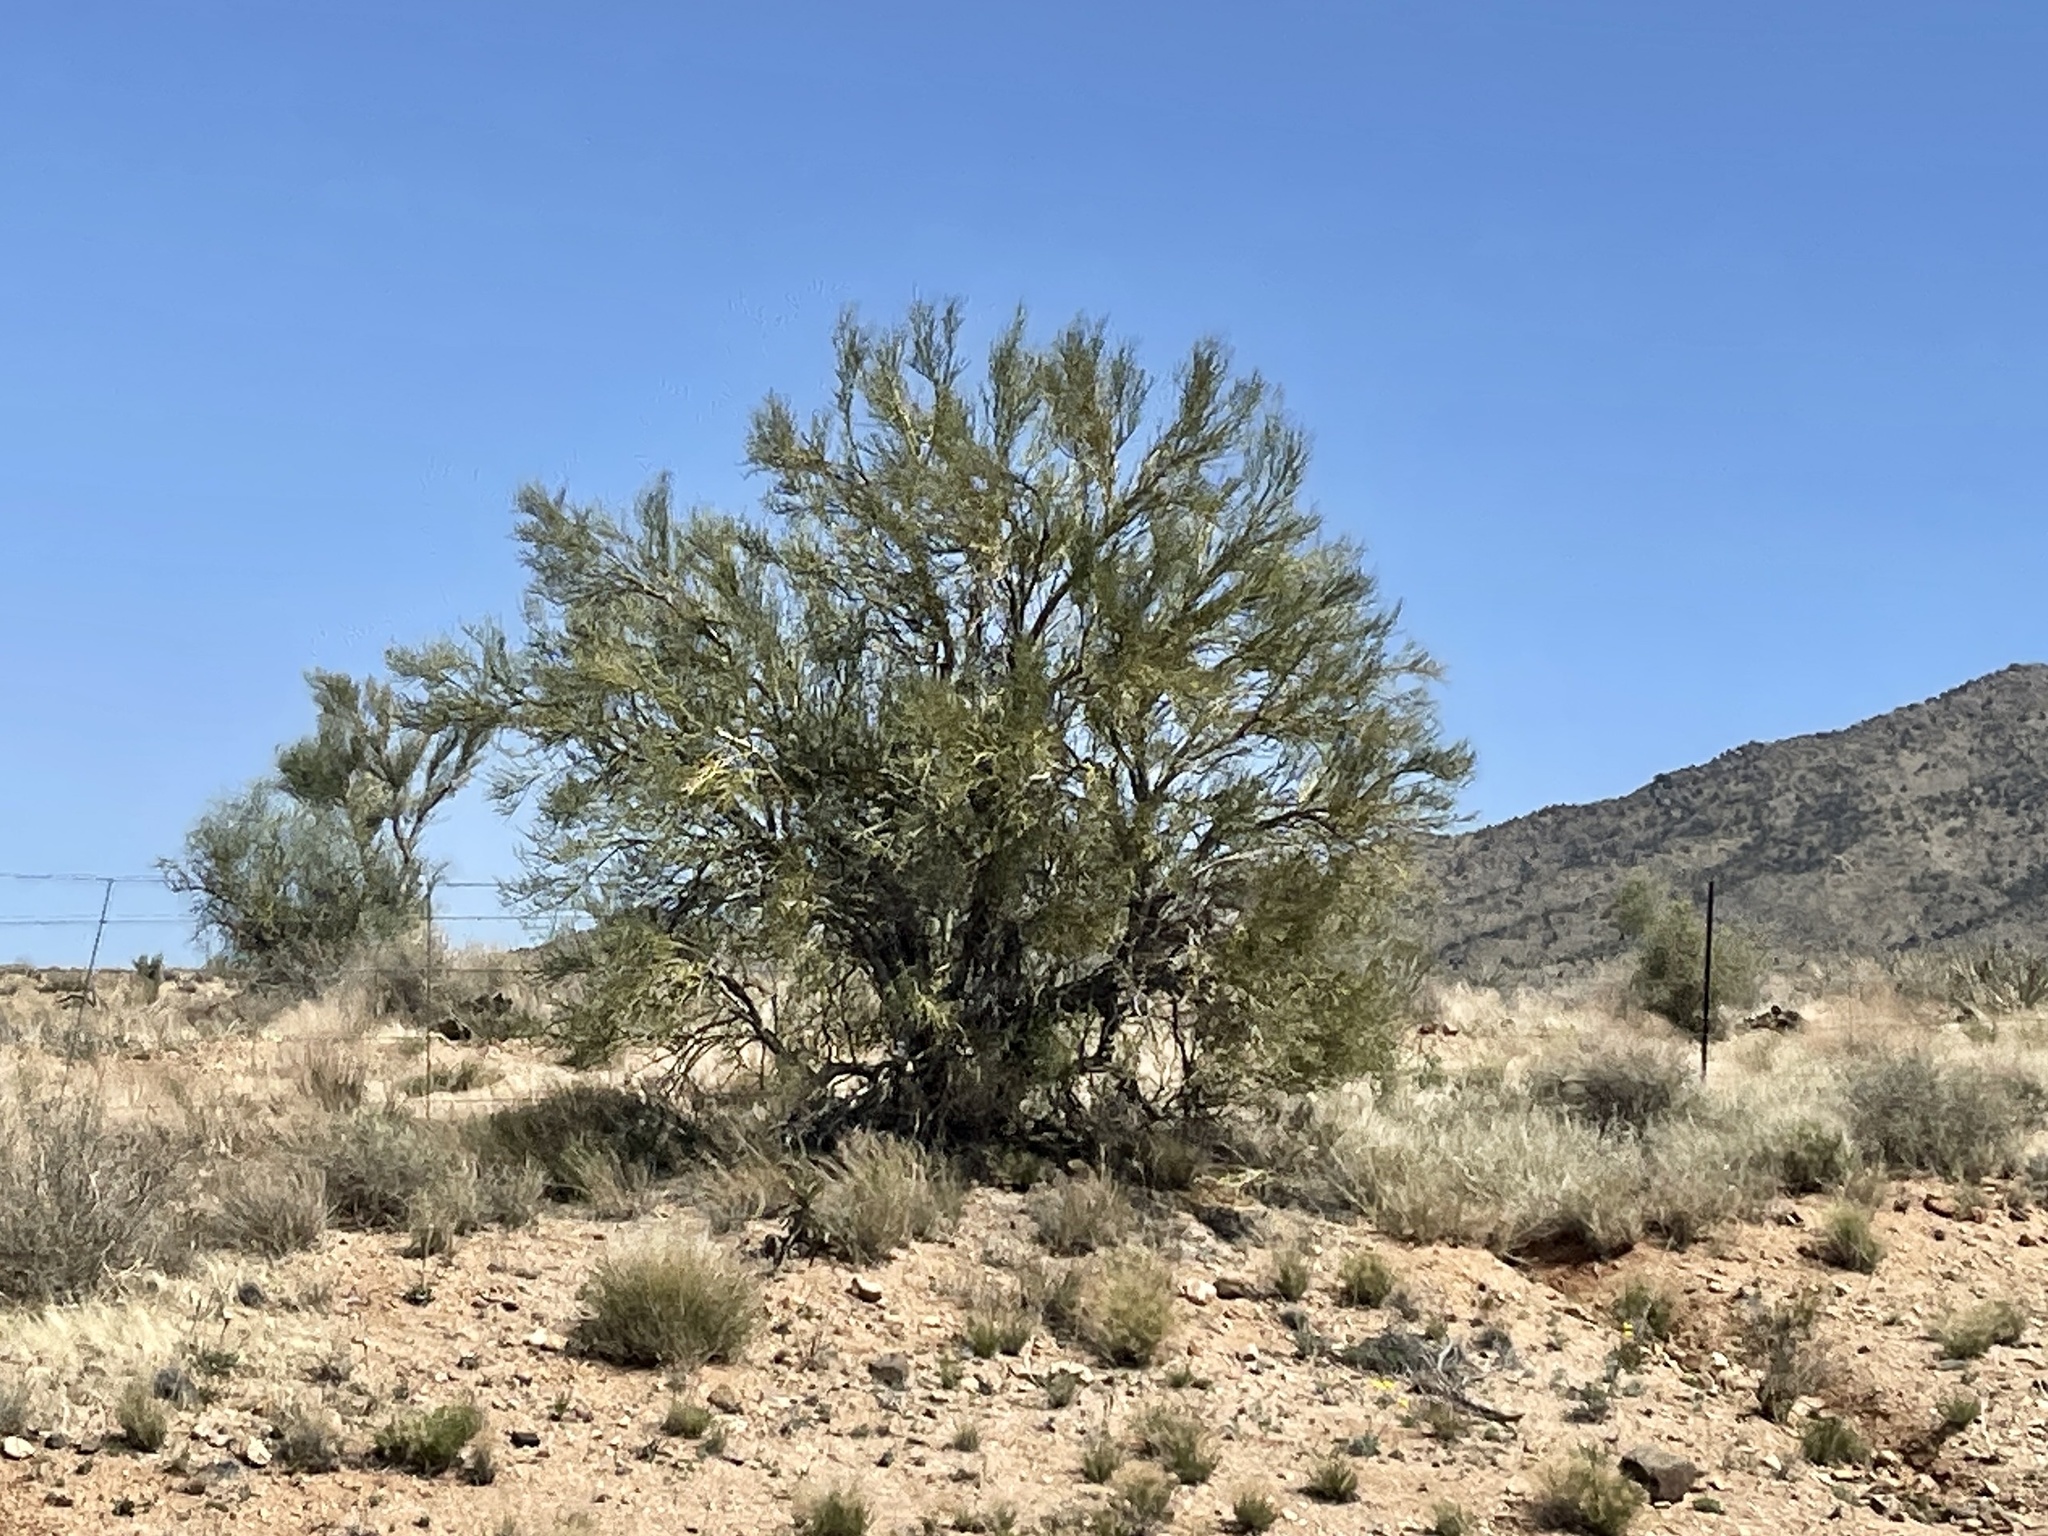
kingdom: Plantae
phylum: Tracheophyta
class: Magnoliopsida
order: Celastrales
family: Celastraceae
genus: Canotia
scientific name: Canotia holacantha
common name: Crucifixion thorns
